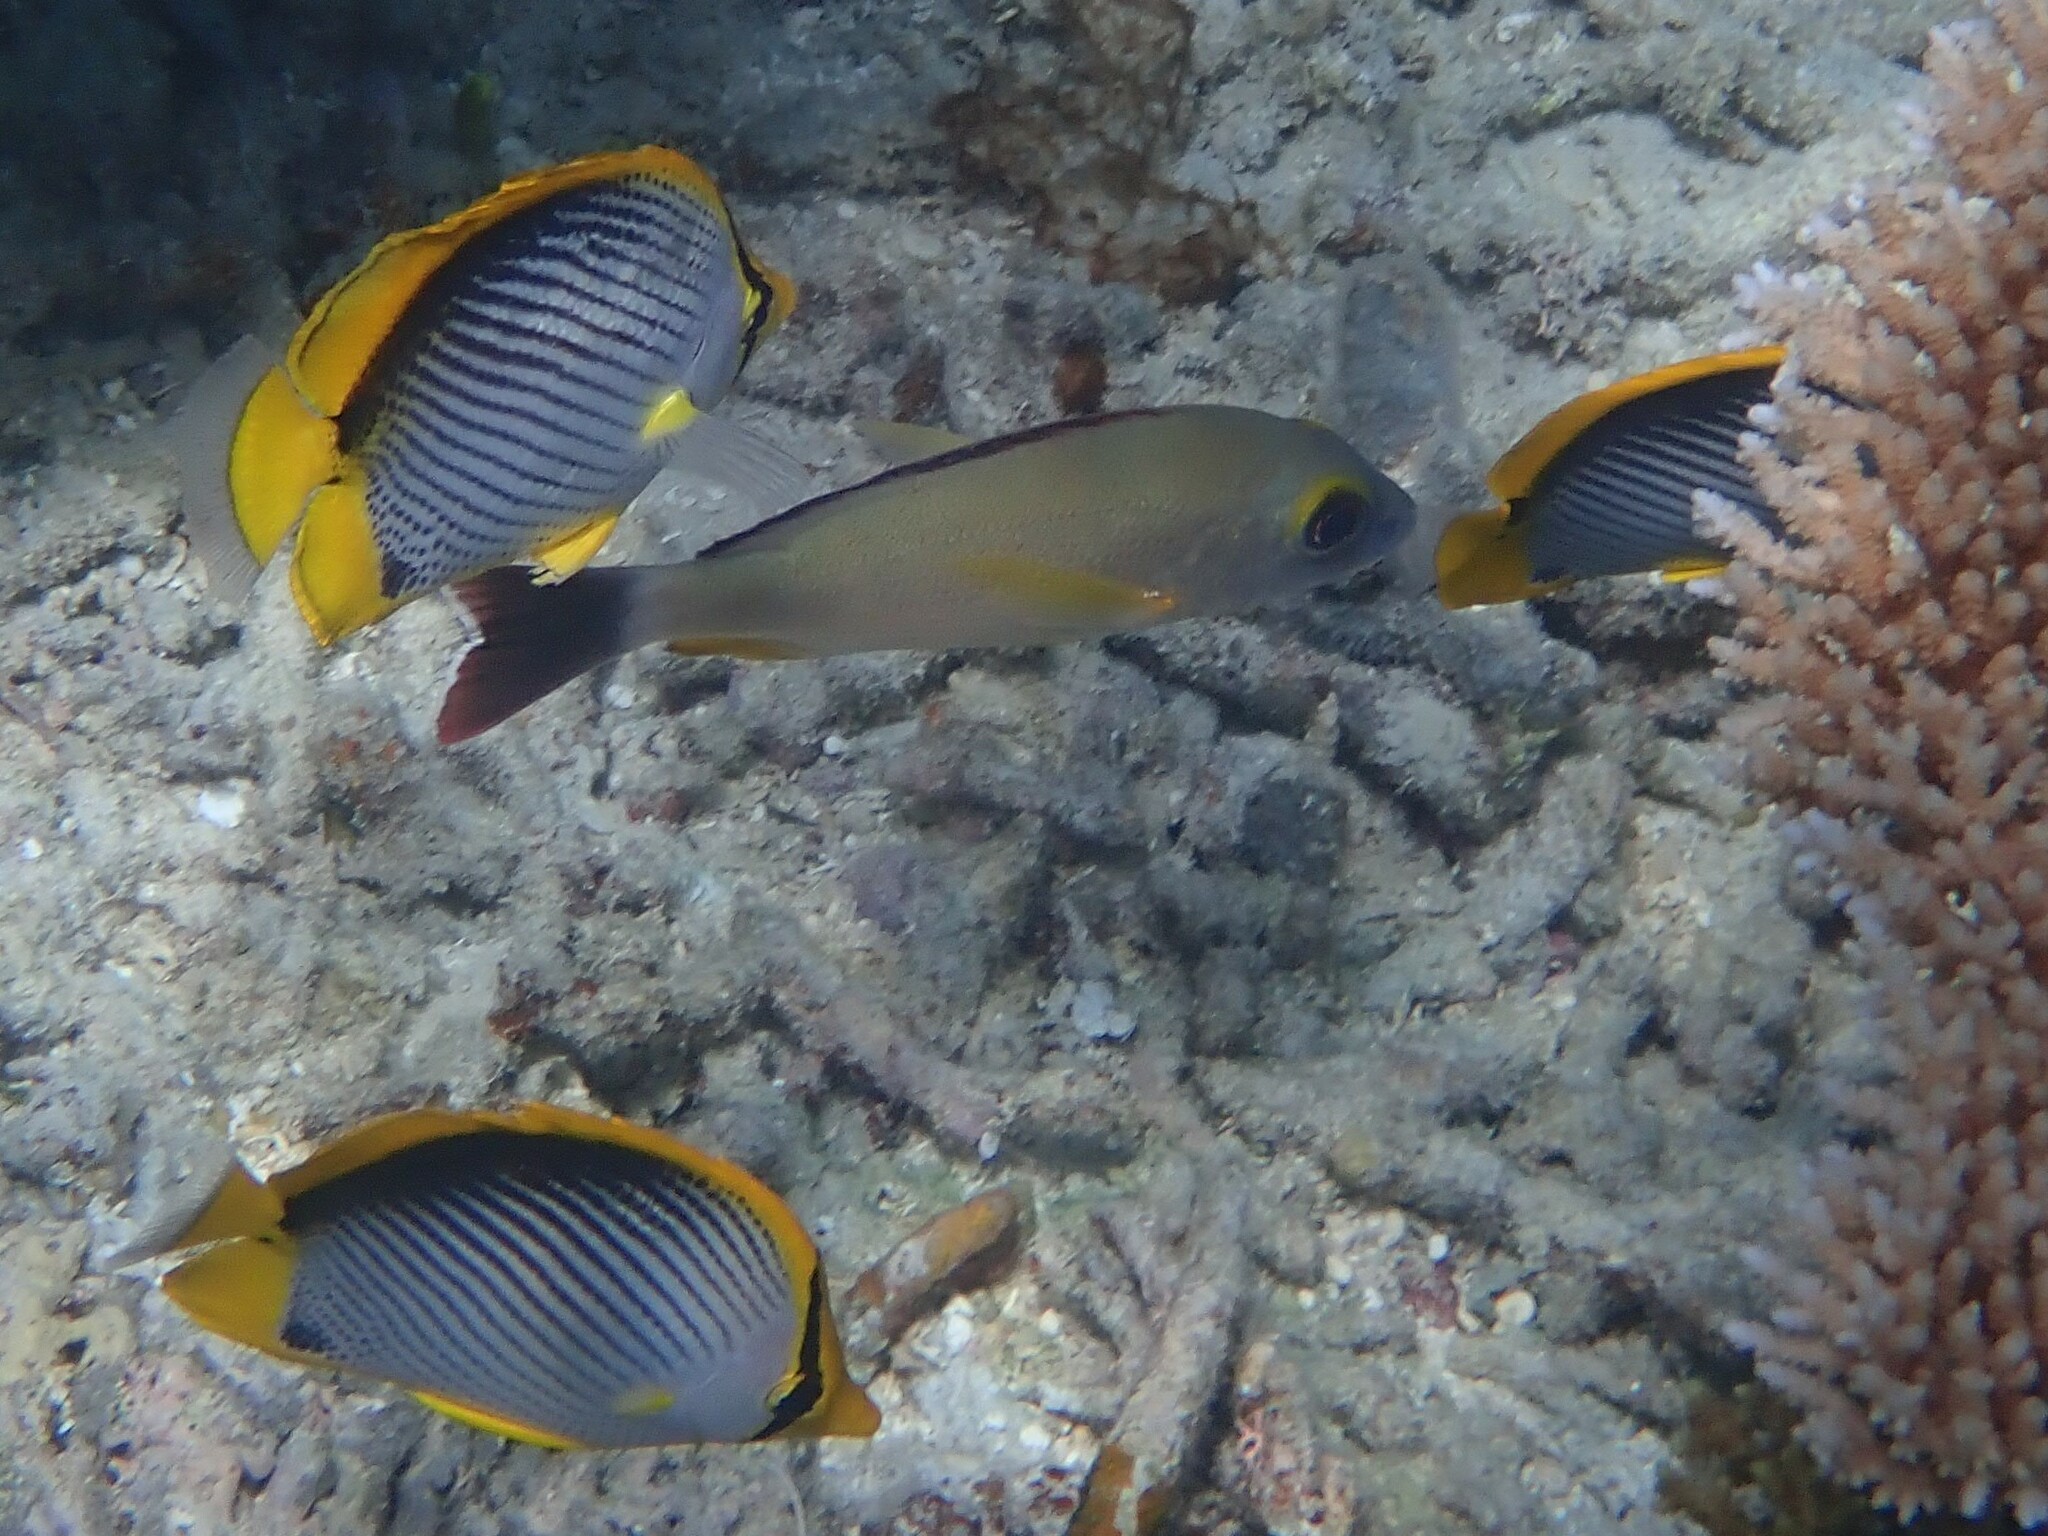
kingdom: Animalia
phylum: Chordata
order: Perciformes
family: Chaetodontidae
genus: Chaetodon
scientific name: Chaetodon melannotus
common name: Blackback butterflyfish
